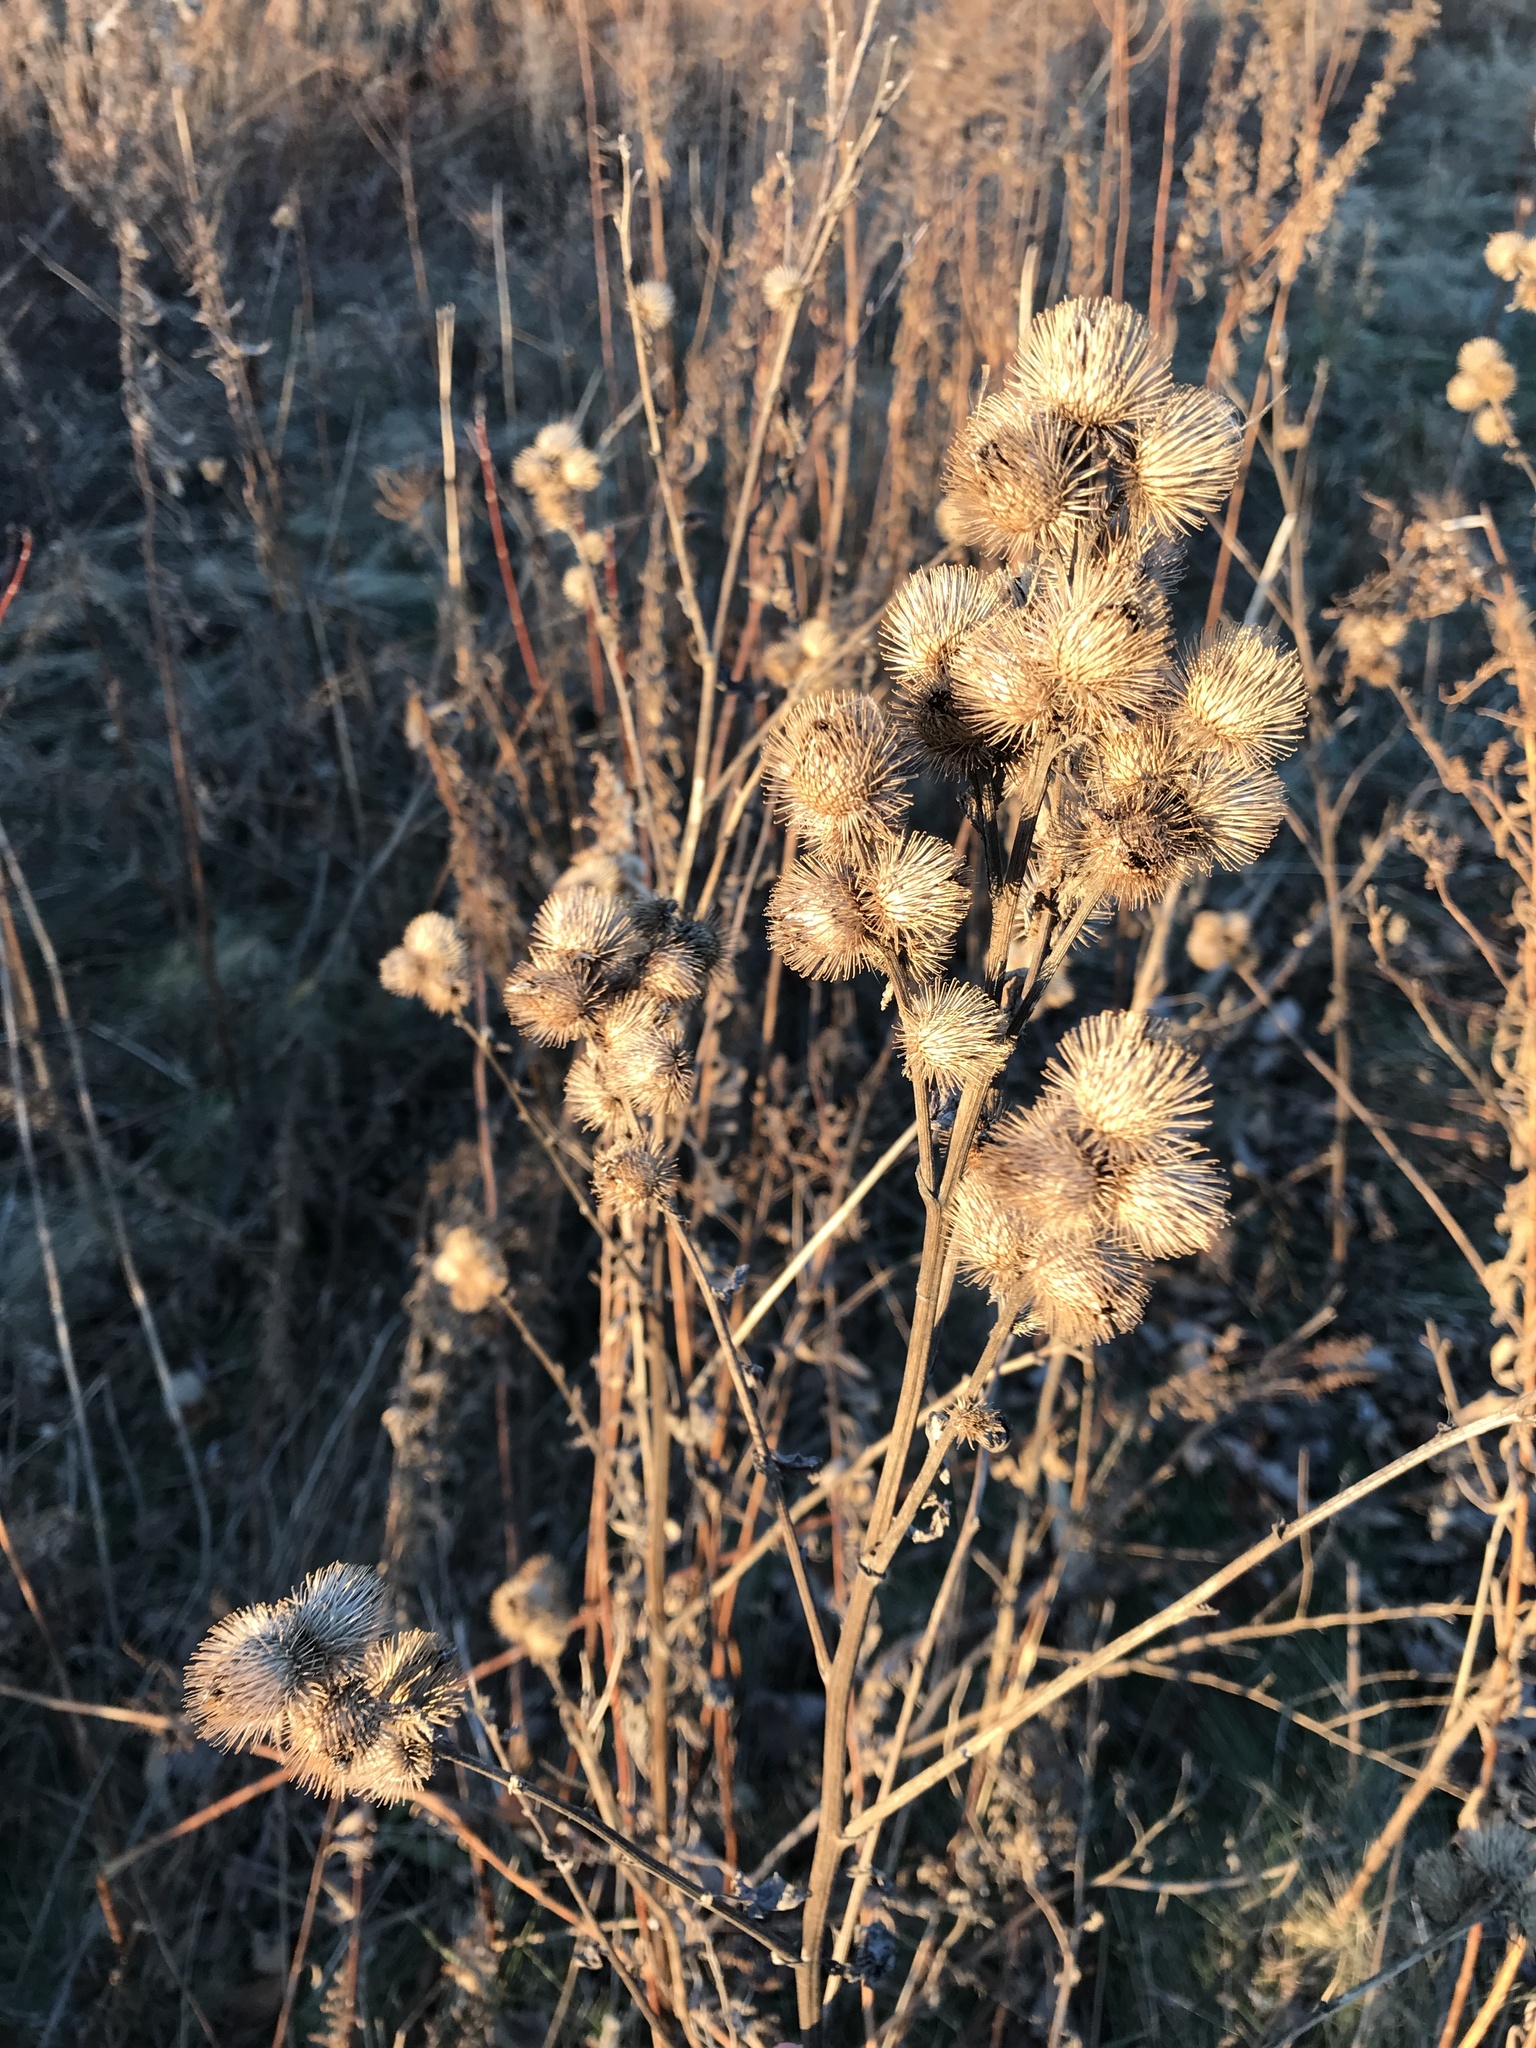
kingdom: Plantae
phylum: Tracheophyta
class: Magnoliopsida
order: Asterales
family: Asteraceae
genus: Arctium
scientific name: Arctium minus
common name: Lesser burdock
